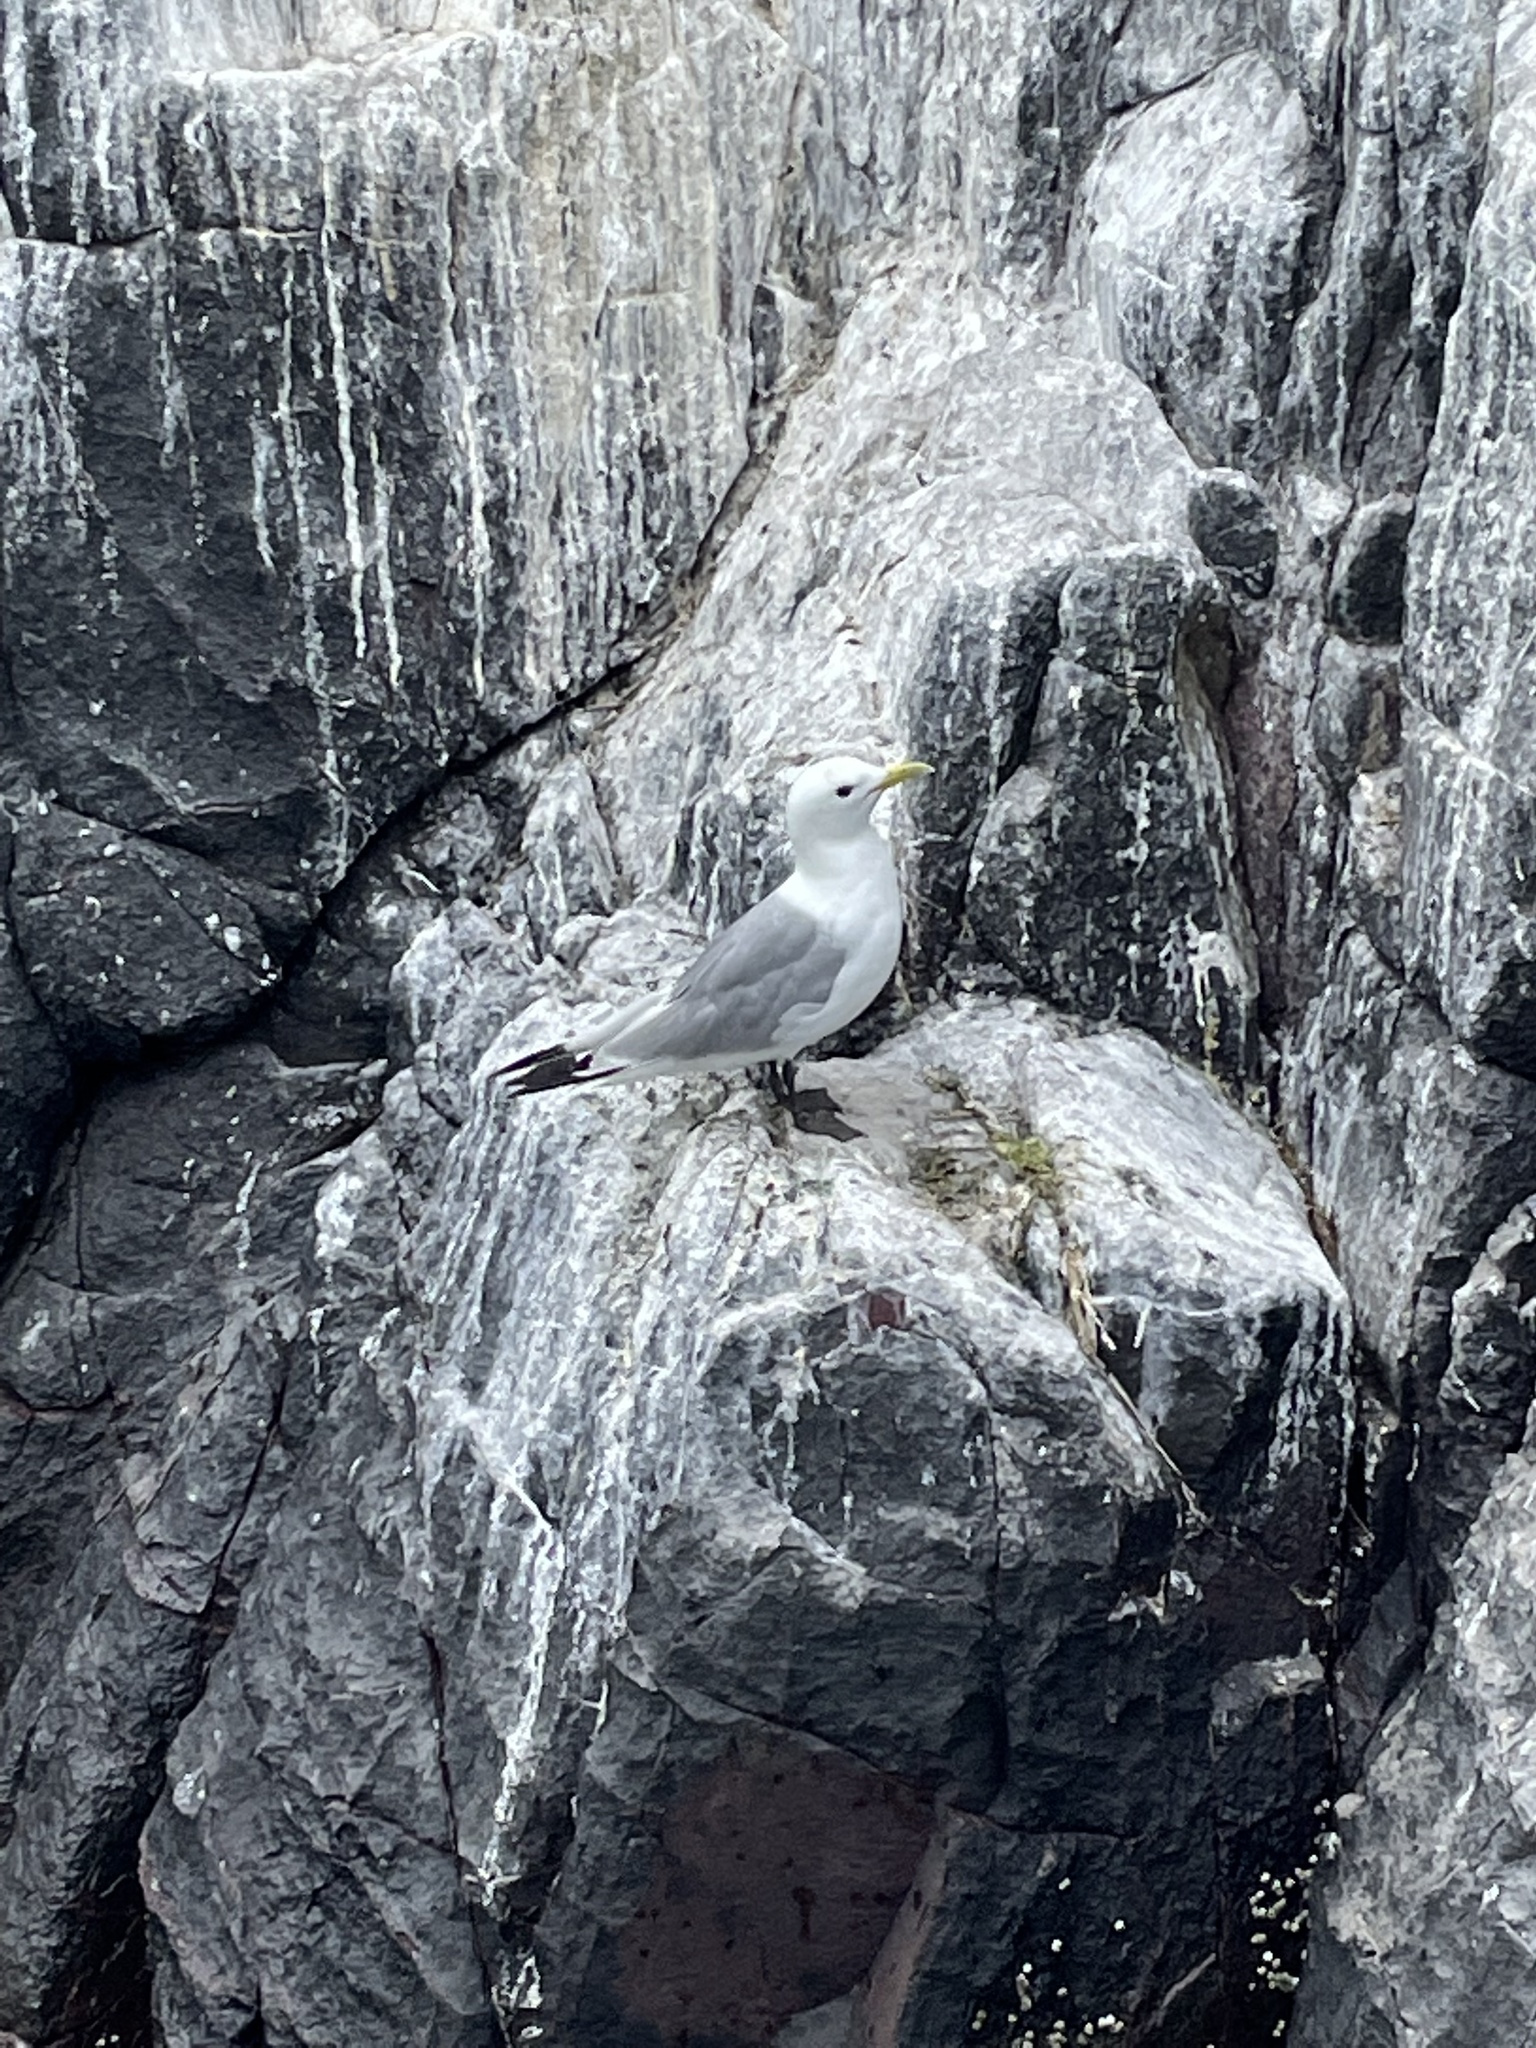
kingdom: Animalia
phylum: Chordata
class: Aves
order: Charadriiformes
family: Laridae
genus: Rissa
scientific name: Rissa tridactyla
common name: Black-legged kittiwake
